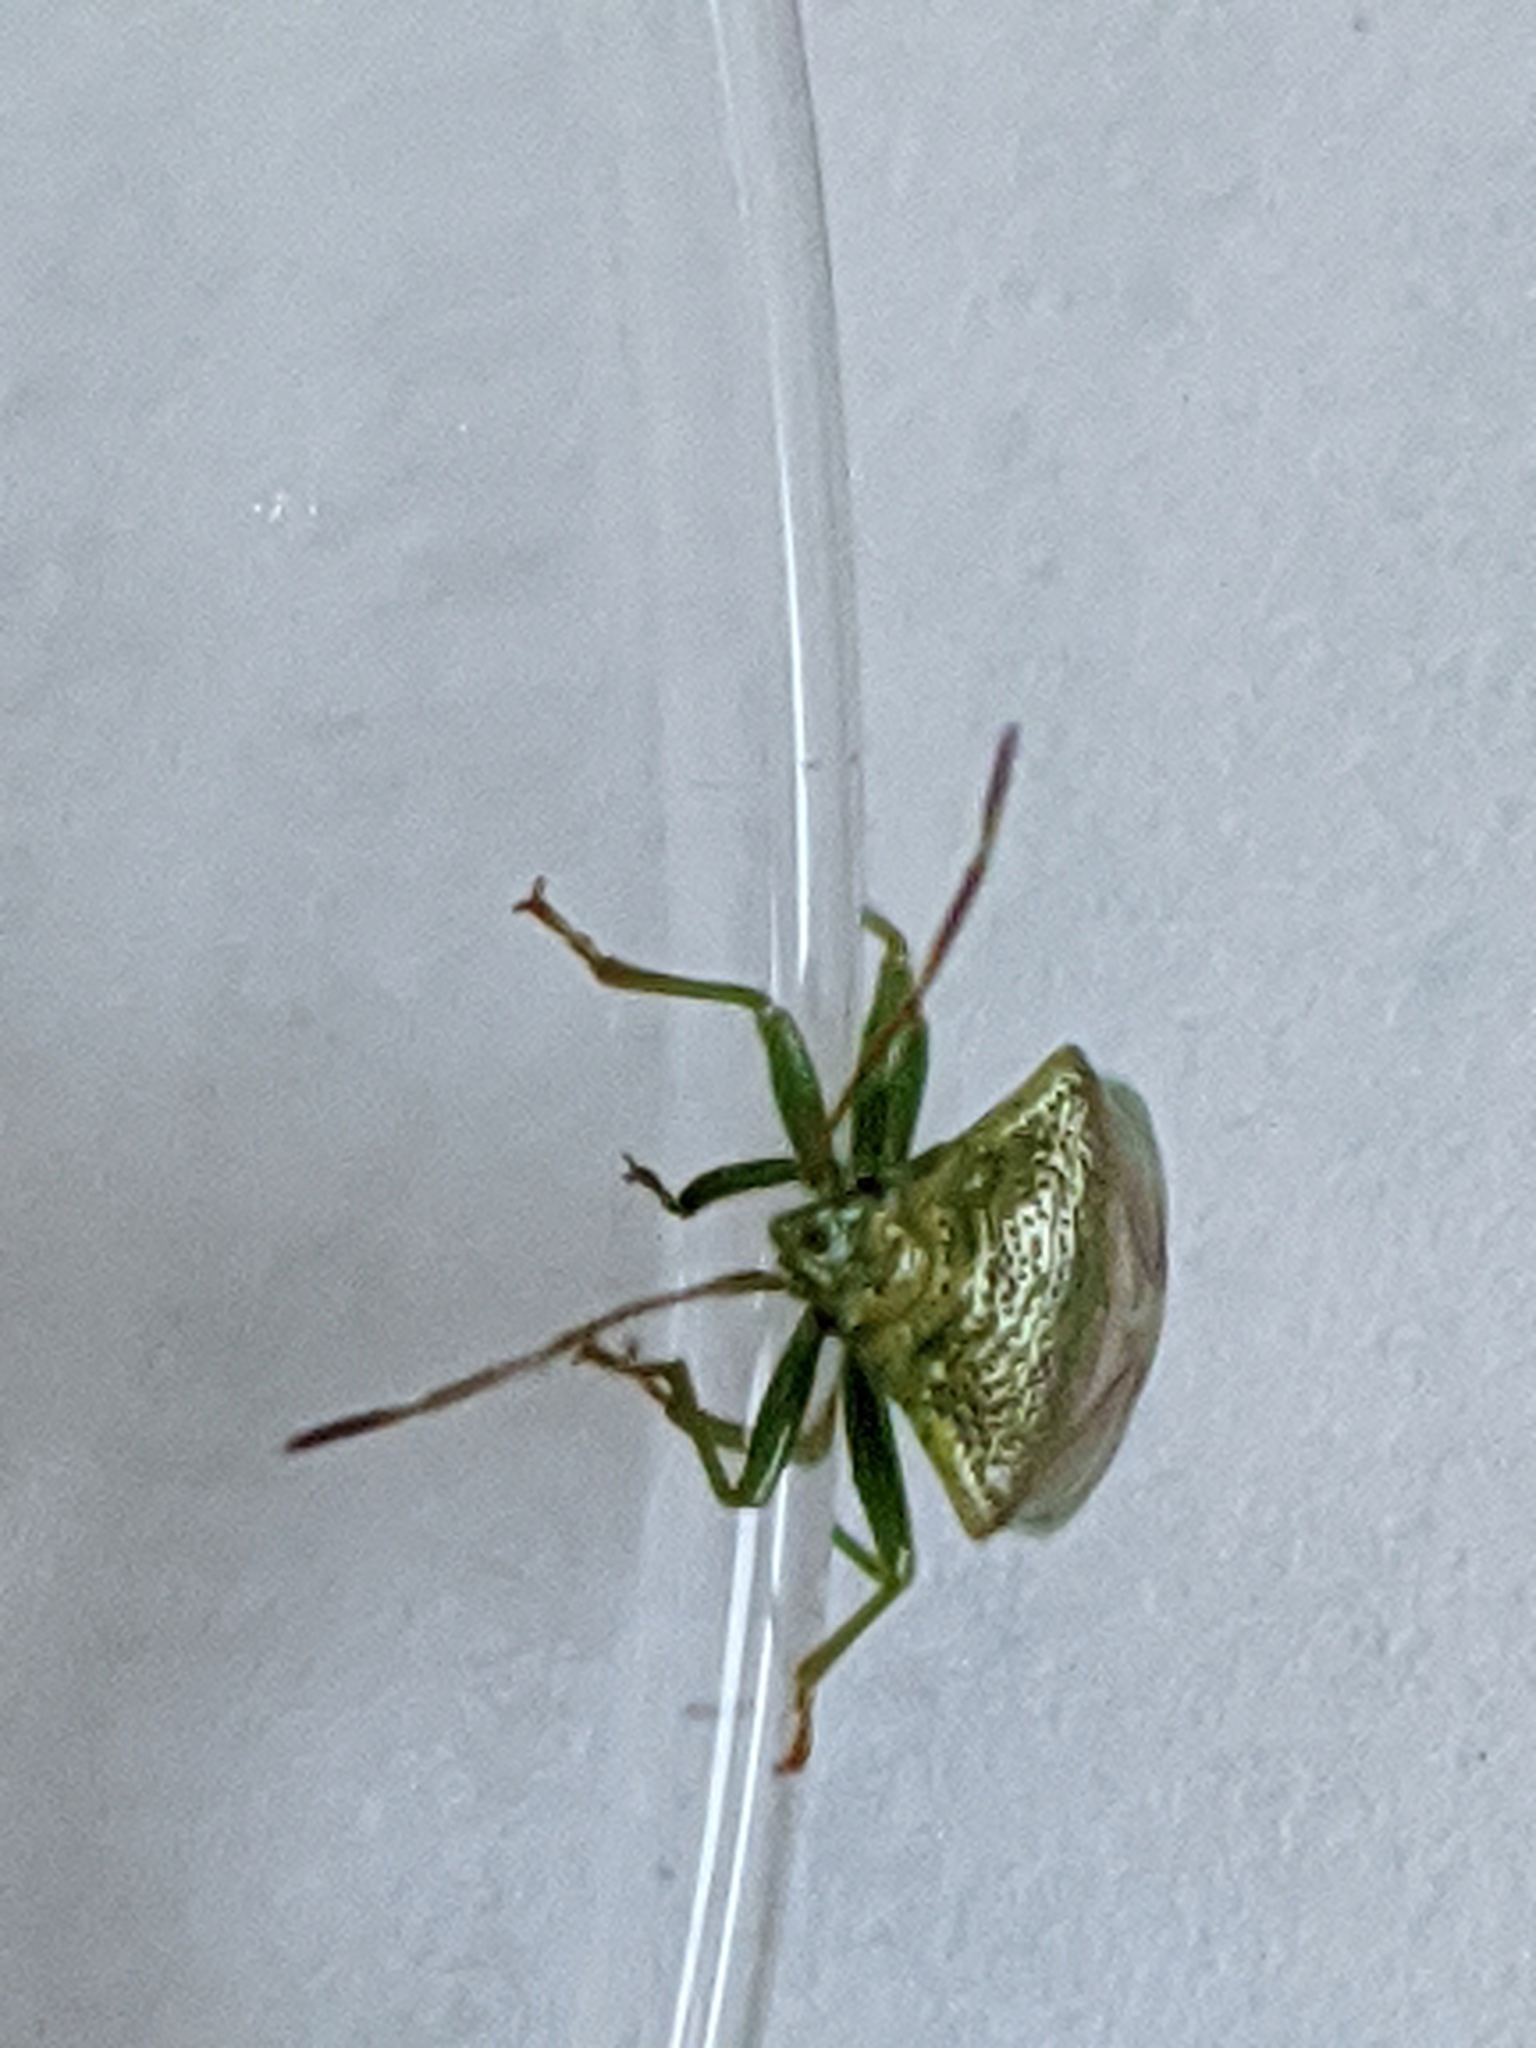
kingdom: Animalia
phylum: Arthropoda
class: Insecta
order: Hemiptera
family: Acanthosomatidae
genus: Elasmostethus
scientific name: Elasmostethus cruciatus
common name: Red-cross shield bug
